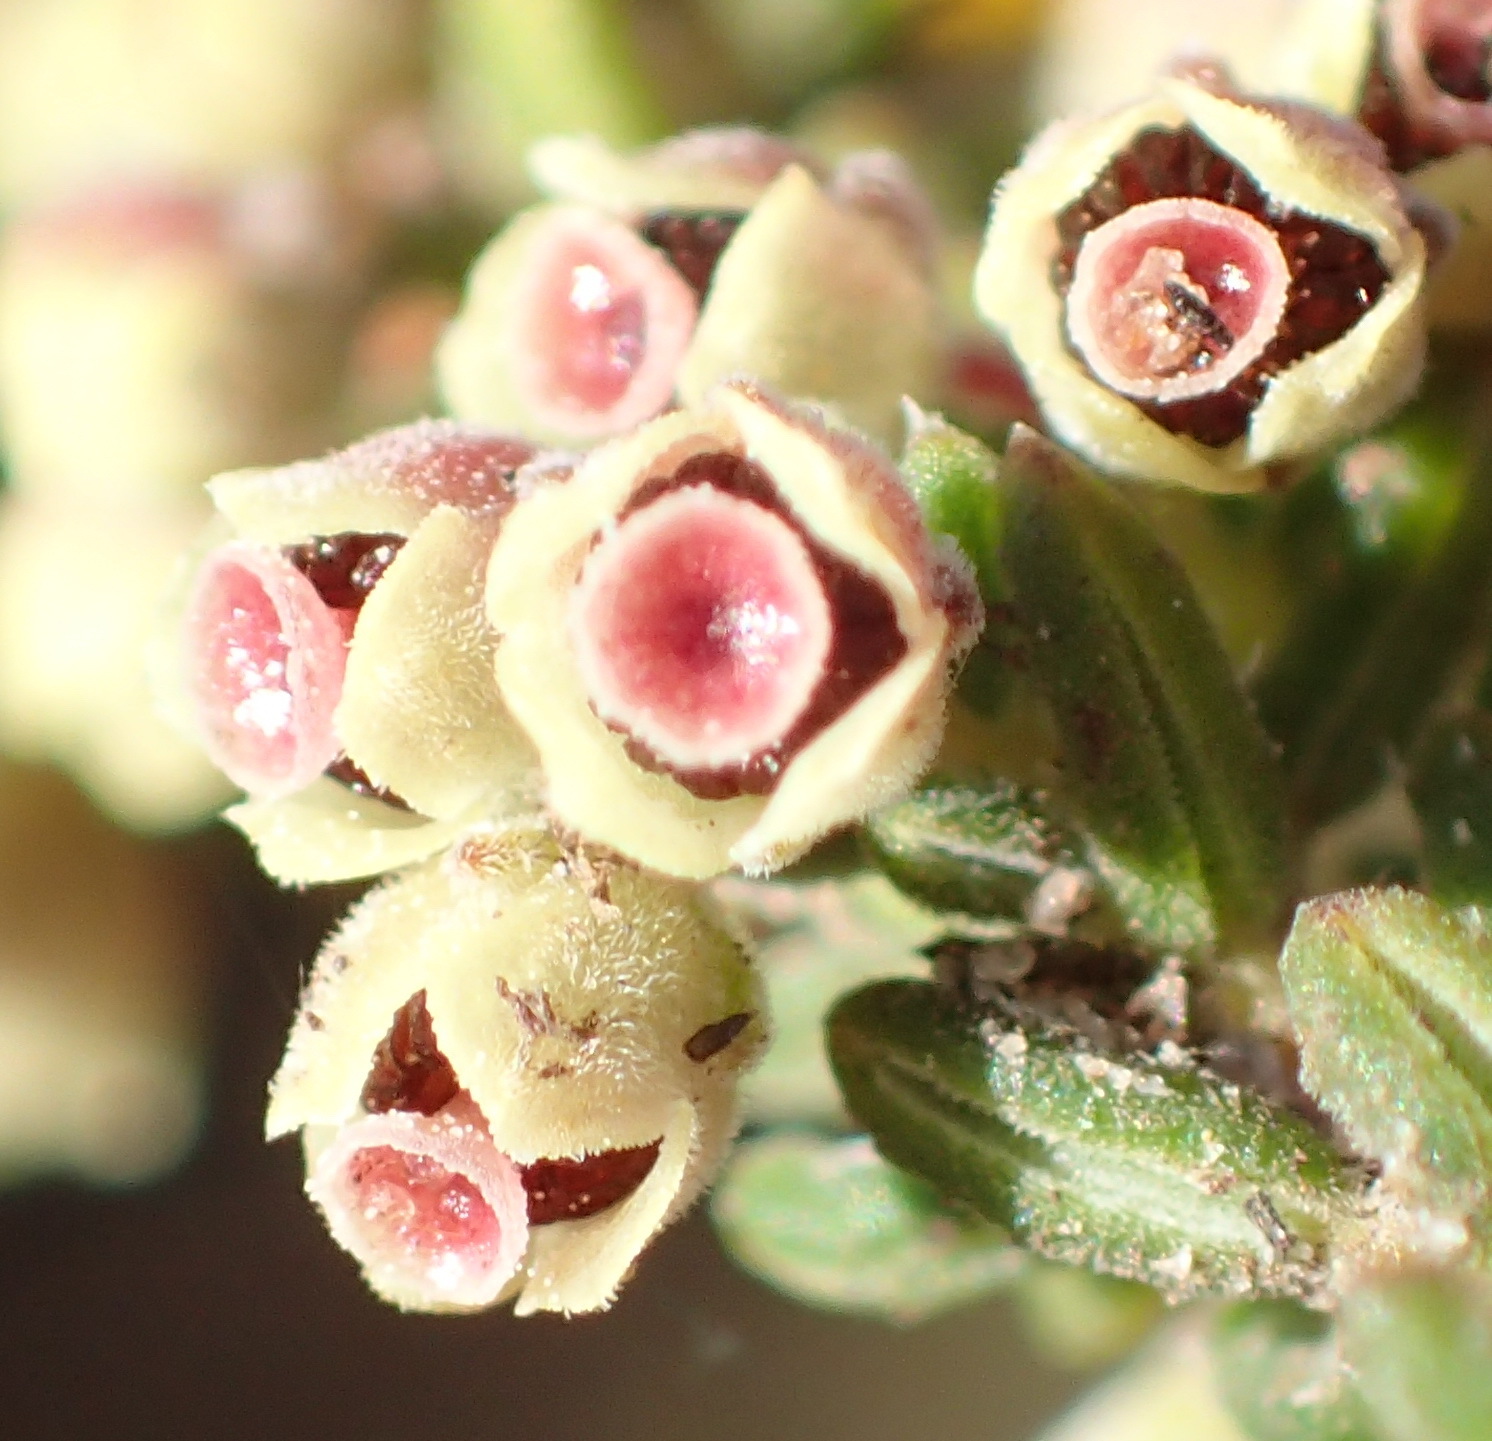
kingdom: Plantae
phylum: Tracheophyta
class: Magnoliopsida
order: Ericales
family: Ericaceae
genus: Erica
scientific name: Erica leucopelta
